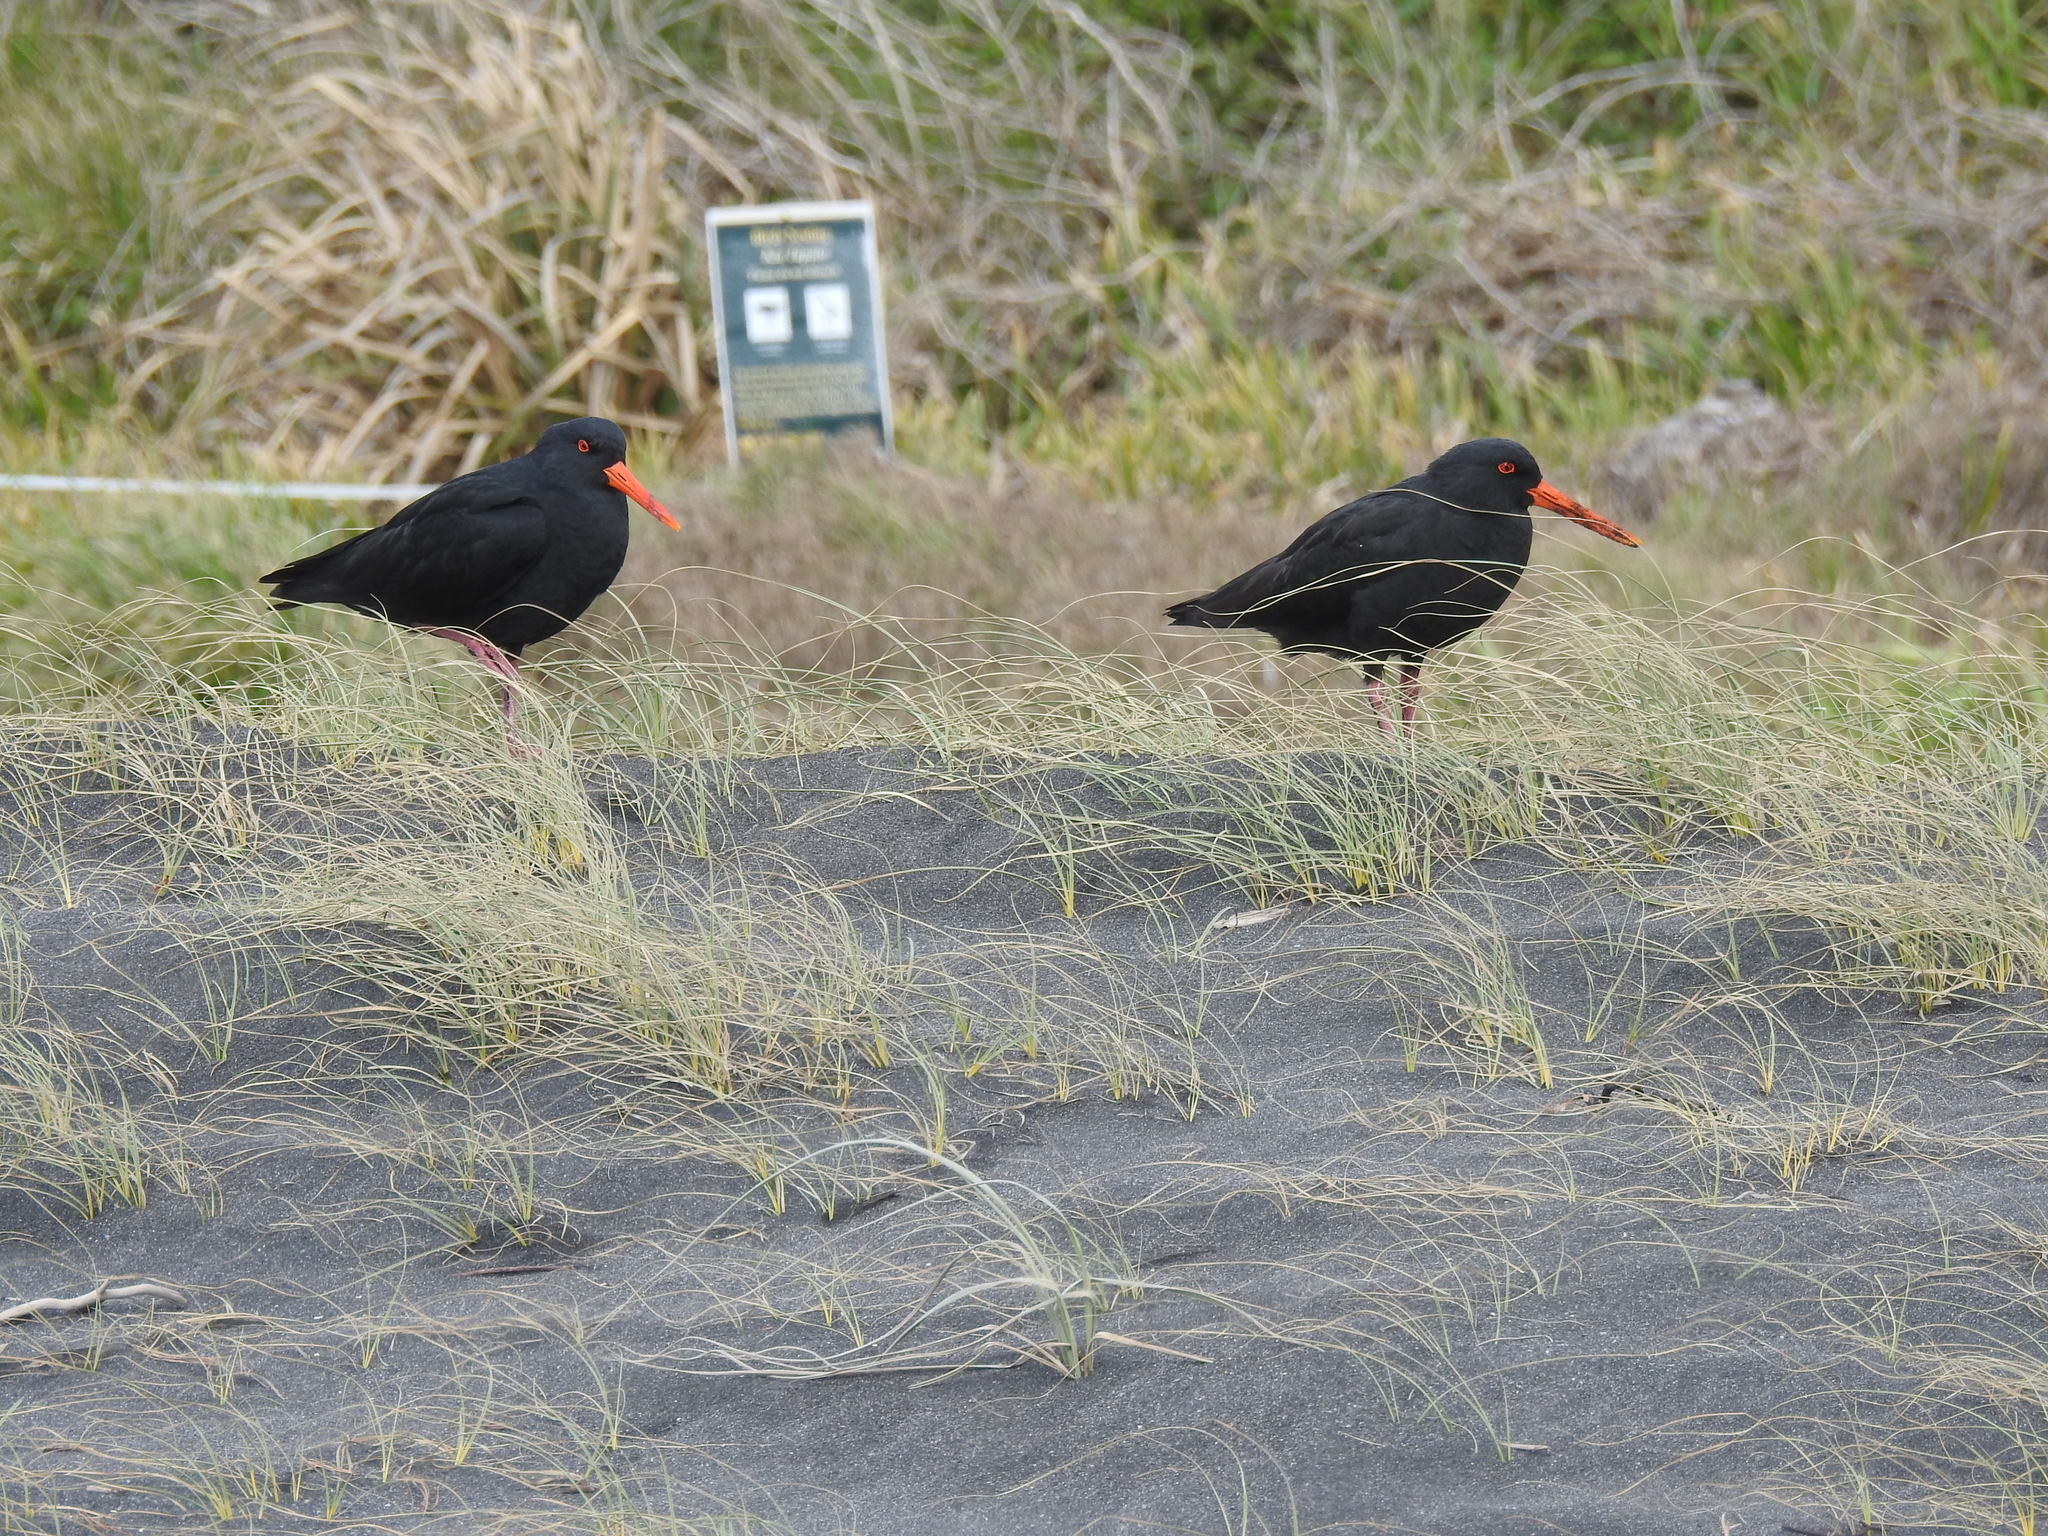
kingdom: Animalia
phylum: Chordata
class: Aves
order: Charadriiformes
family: Haematopodidae
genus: Haematopus
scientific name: Haematopus unicolor
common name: Variable oystercatcher
